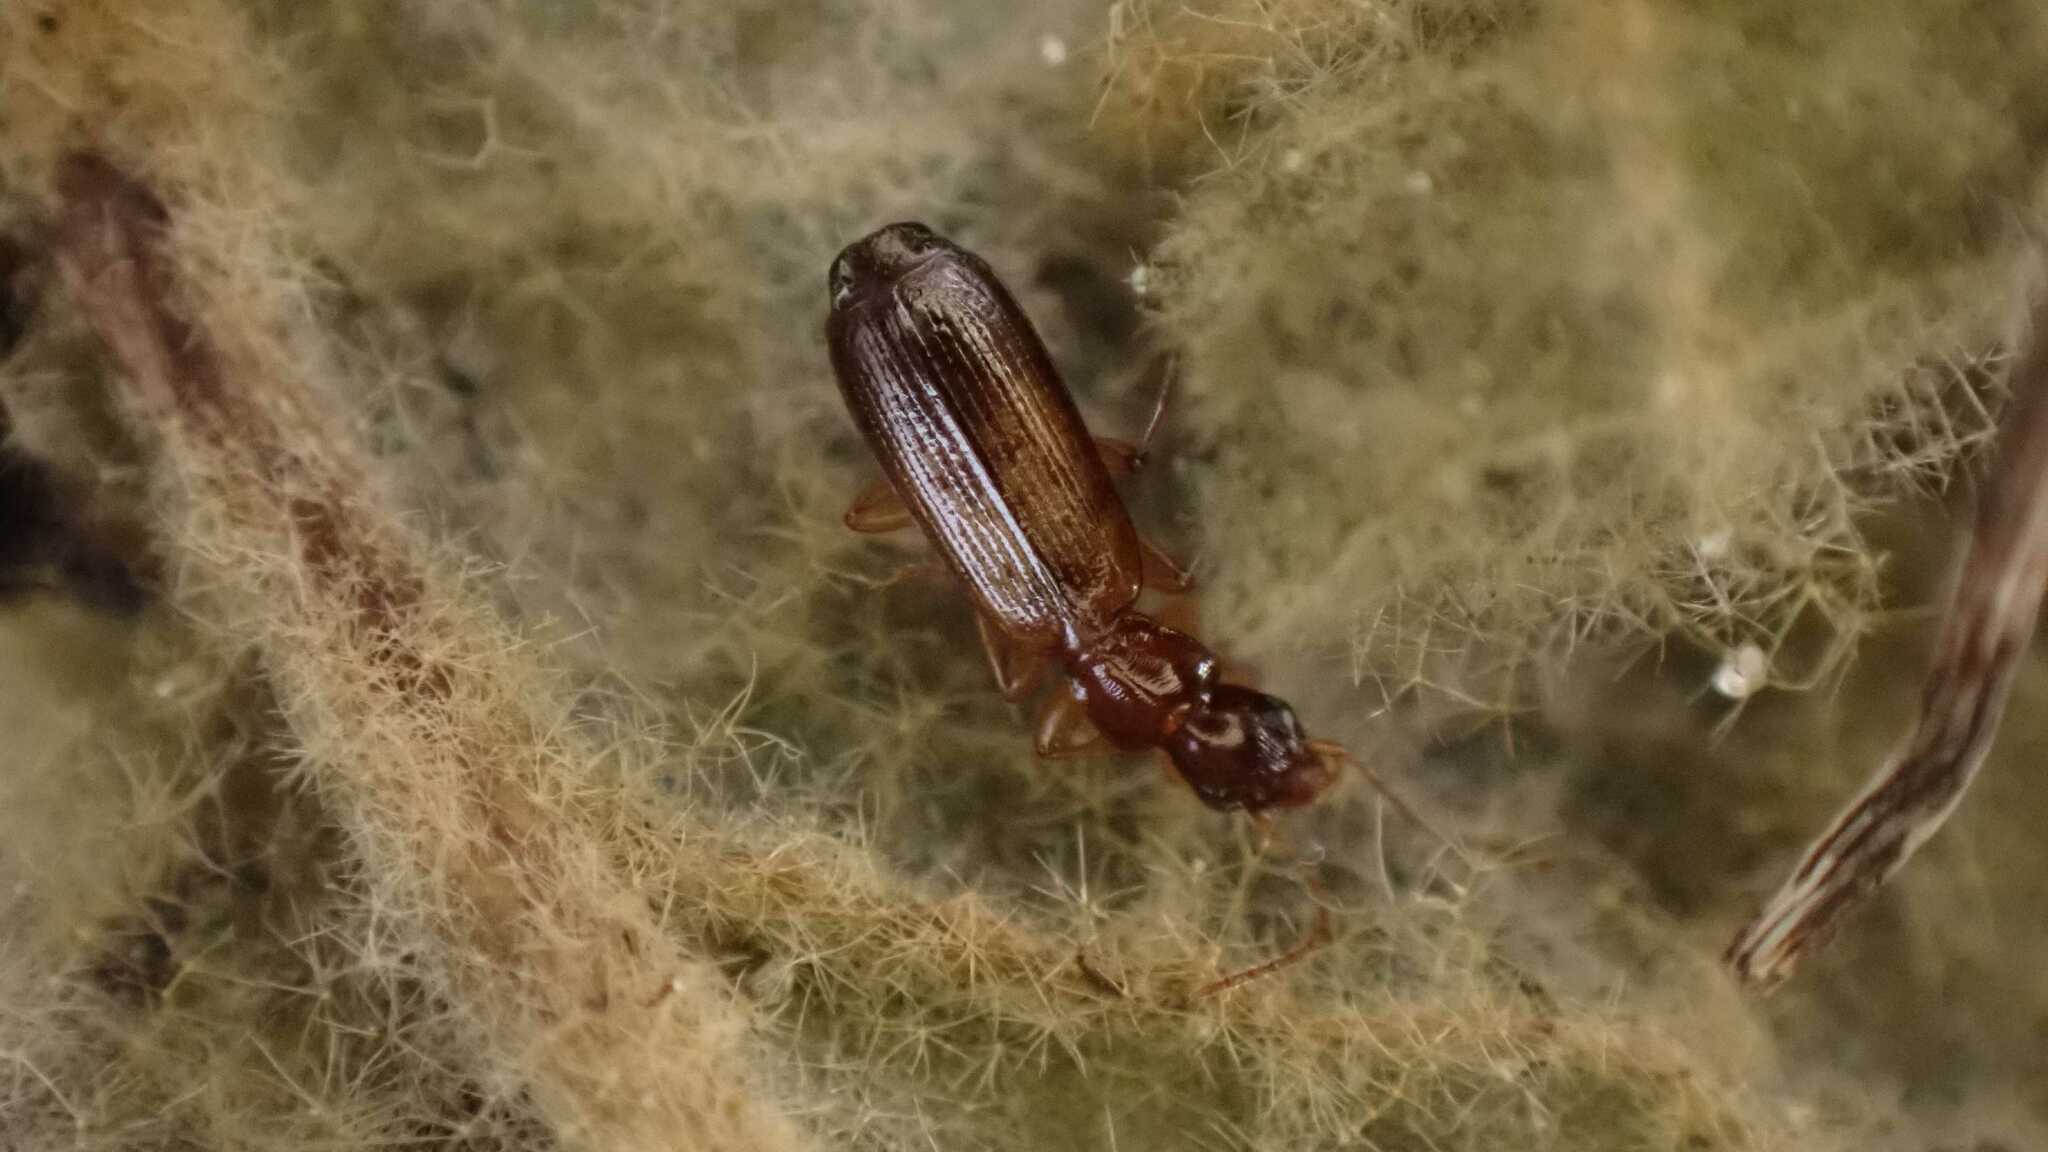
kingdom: Animalia
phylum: Arthropoda
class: Insecta
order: Coleoptera
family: Carabidae
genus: Paradromius
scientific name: Paradromius linearis
